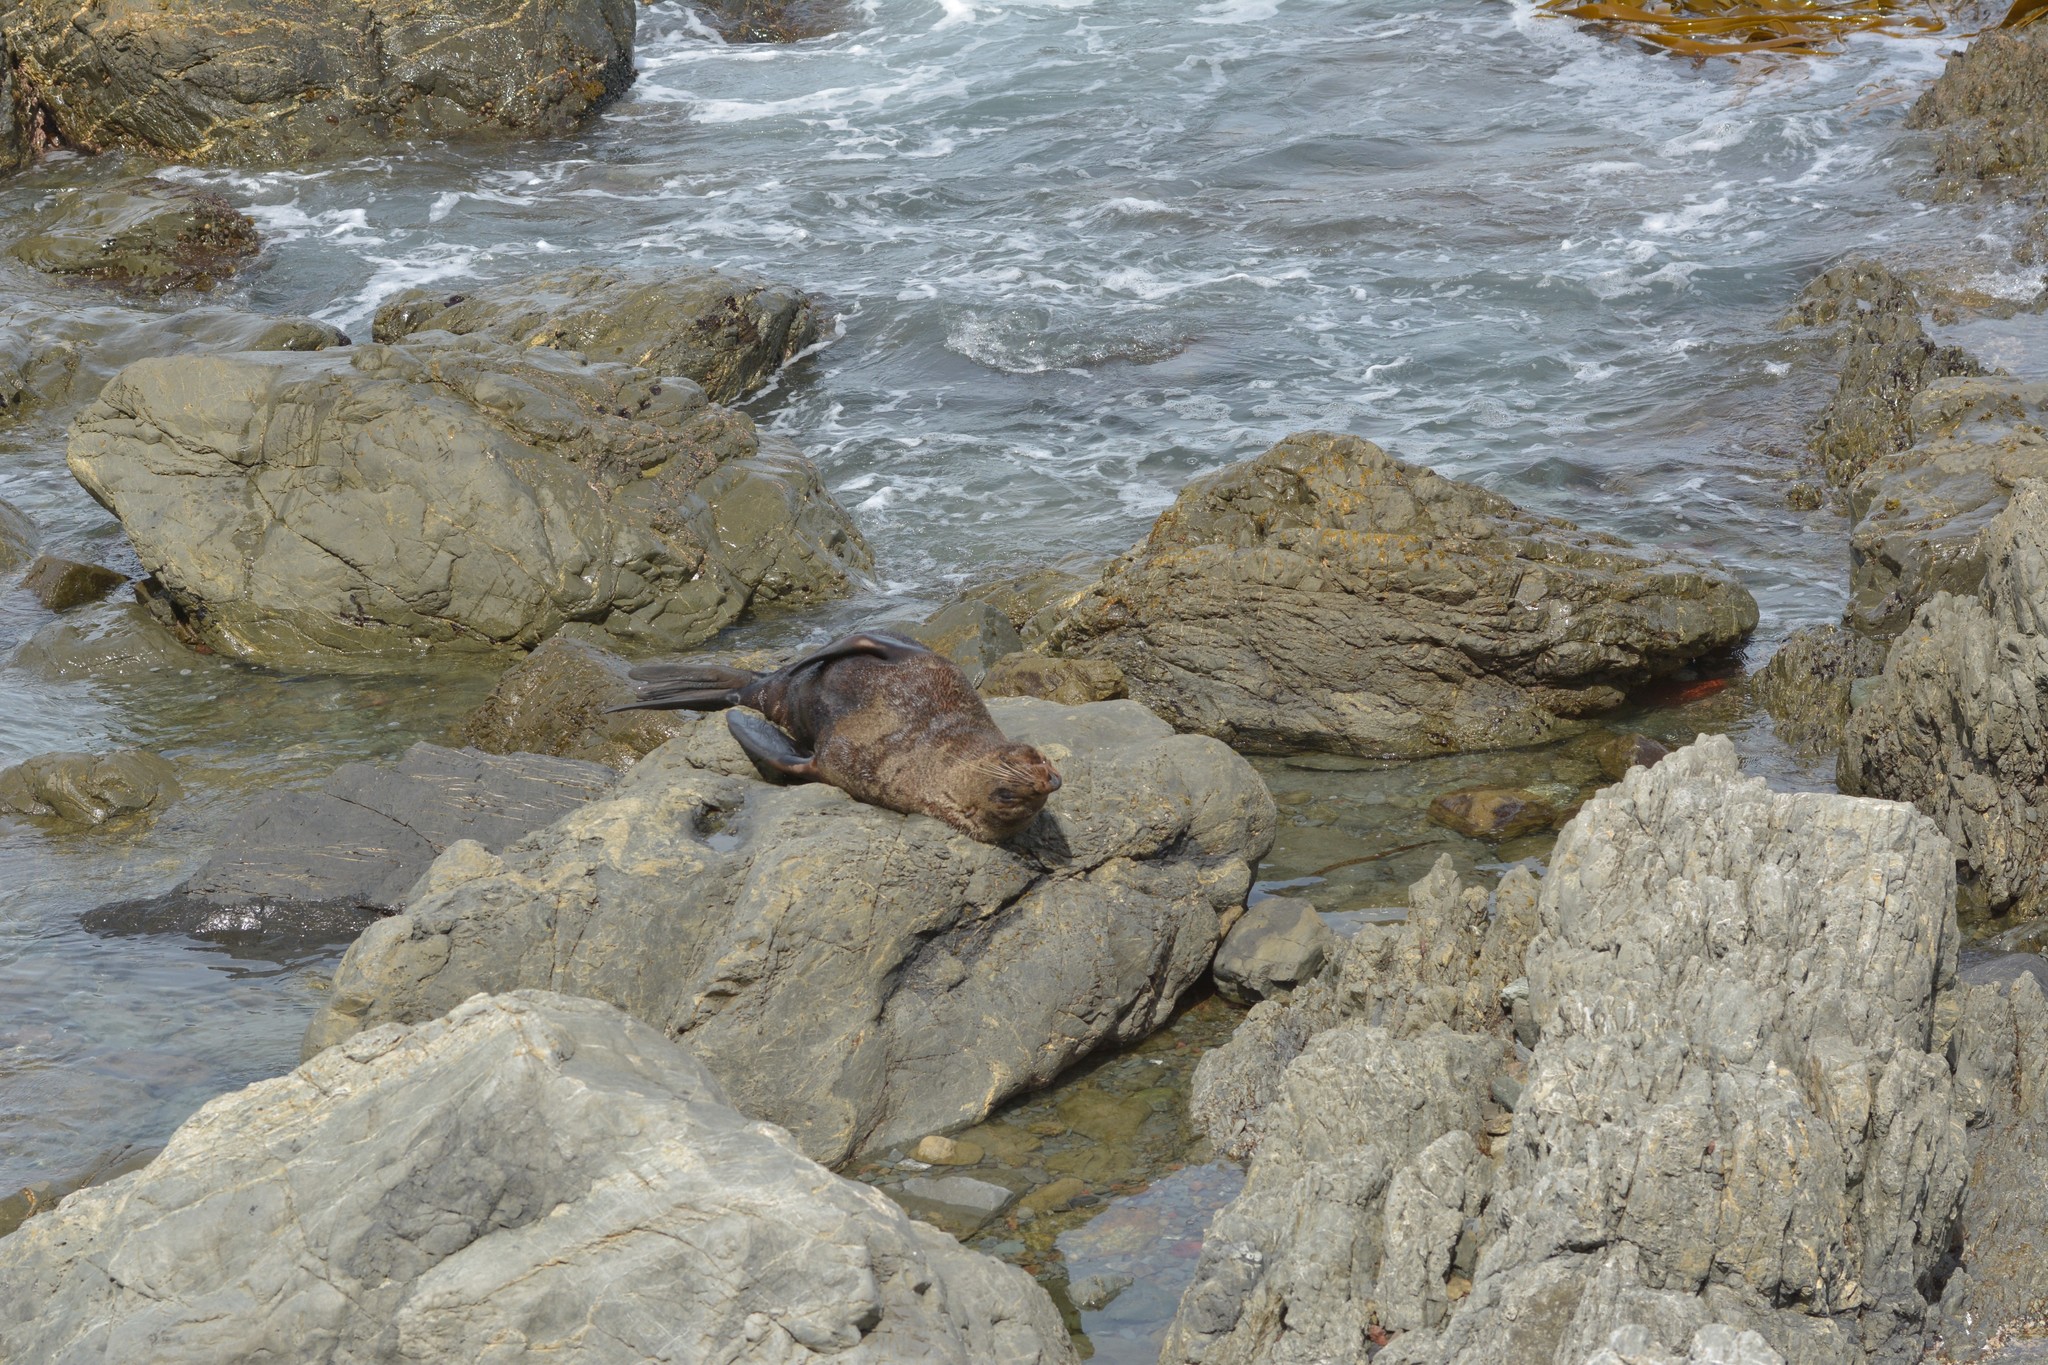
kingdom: Animalia
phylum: Chordata
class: Mammalia
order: Carnivora
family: Otariidae
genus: Arctocephalus
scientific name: Arctocephalus forsteri
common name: New zealand fur seal
